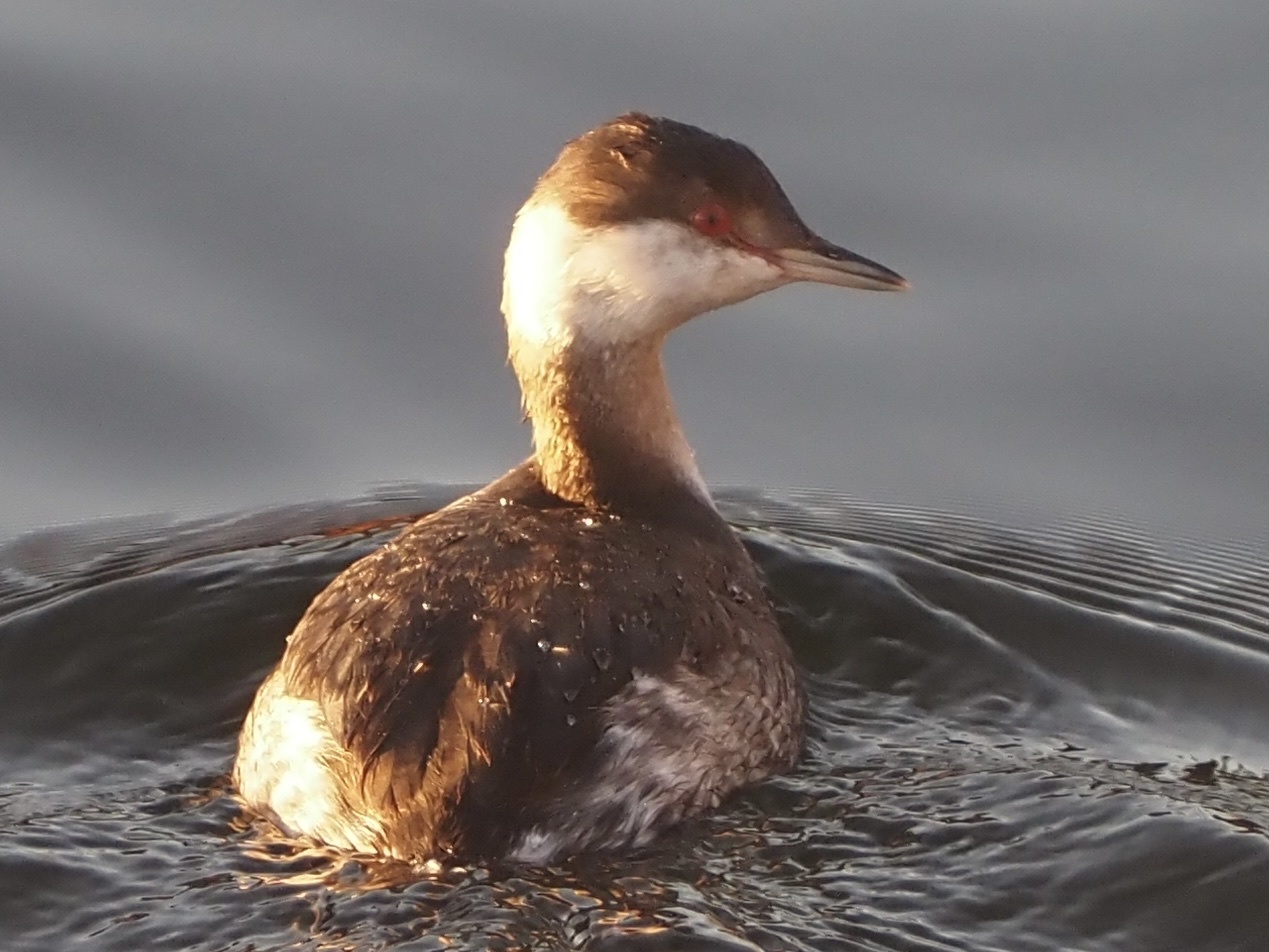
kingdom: Animalia
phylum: Chordata
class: Aves
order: Podicipediformes
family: Podicipedidae
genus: Podiceps
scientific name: Podiceps auritus
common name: Horned grebe
